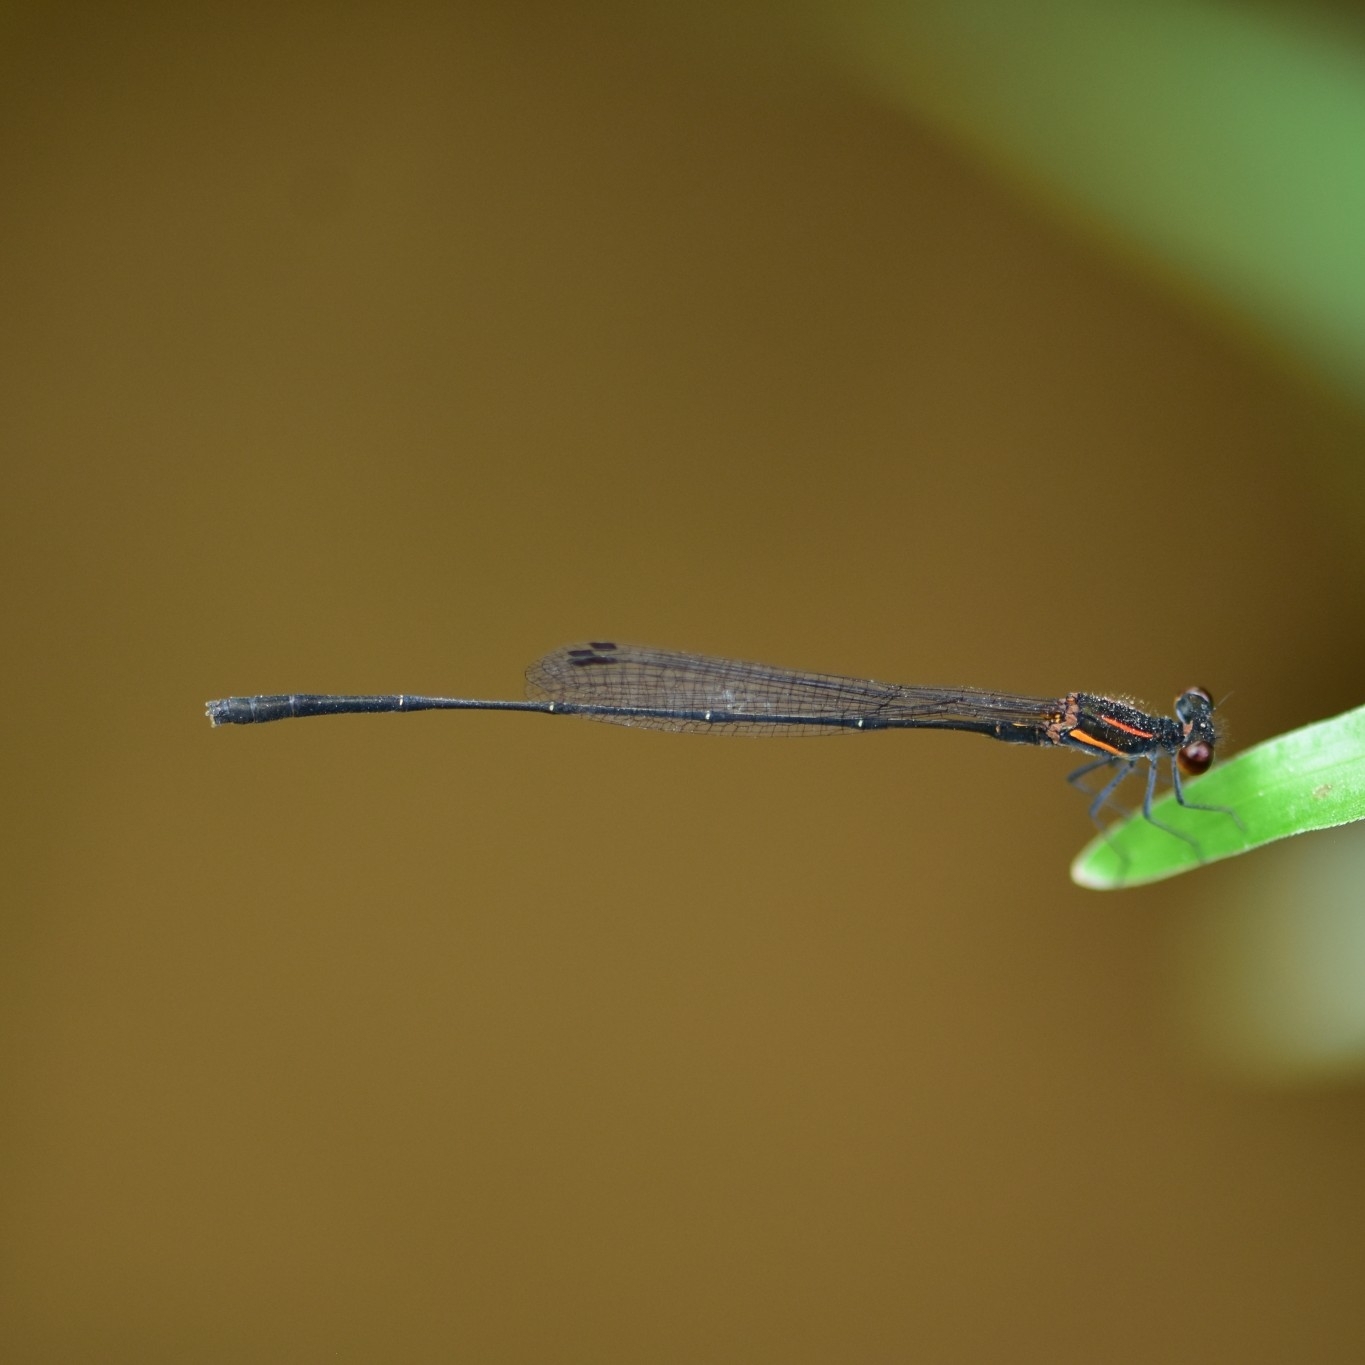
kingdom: Animalia
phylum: Arthropoda
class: Insecta
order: Odonata
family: Platycnemididae
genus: Prodasineura
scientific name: Prodasineura verticalis
